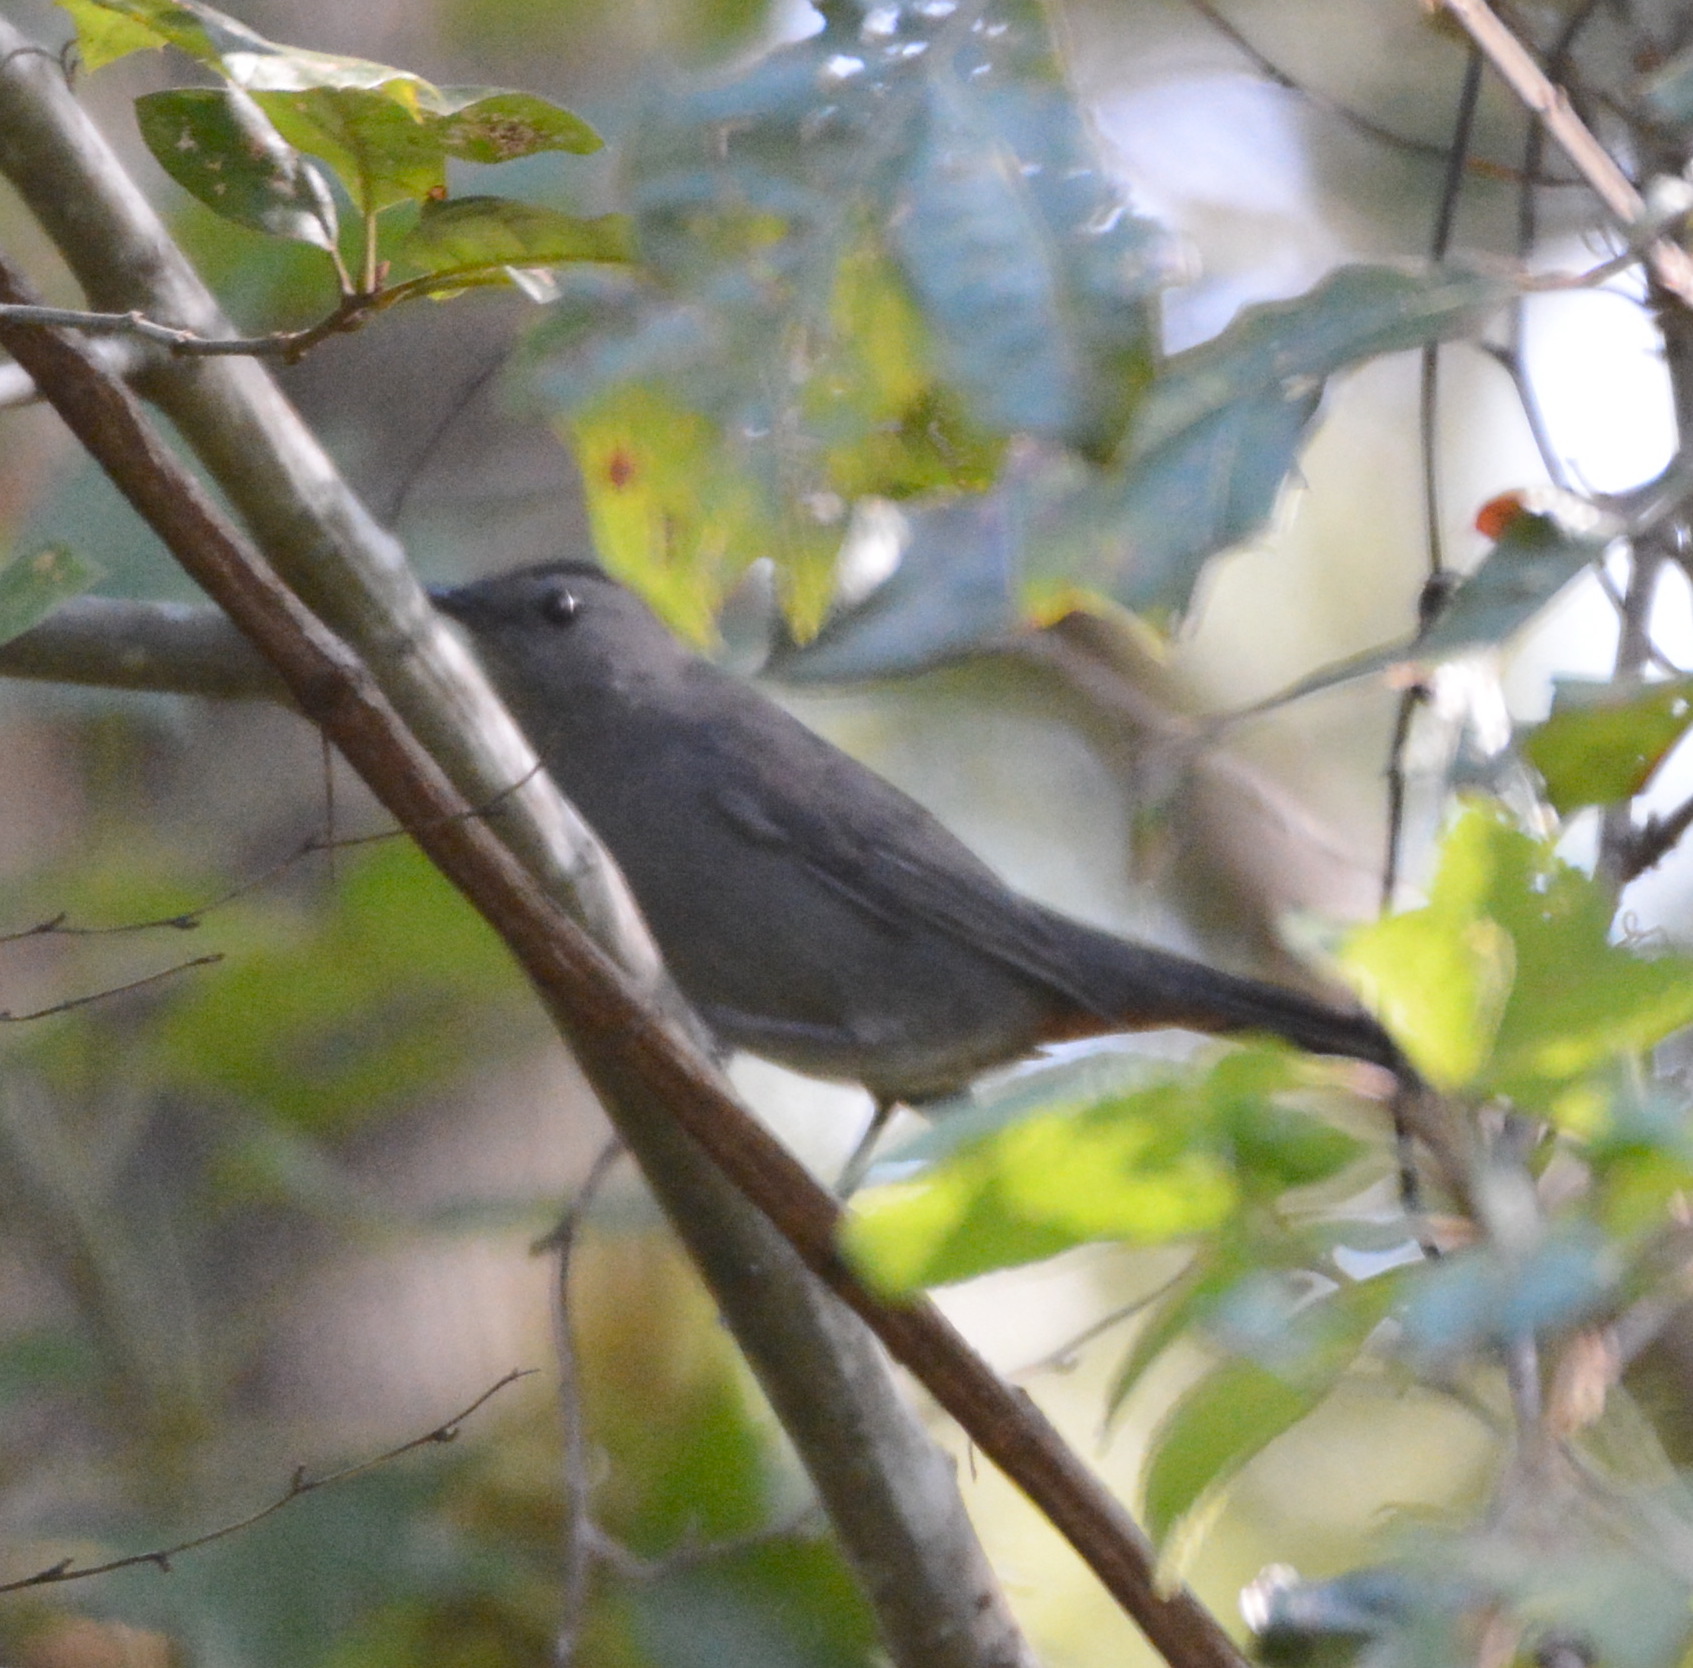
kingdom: Animalia
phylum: Chordata
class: Aves
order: Passeriformes
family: Mimidae
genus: Dumetella
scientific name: Dumetella carolinensis
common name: Gray catbird
